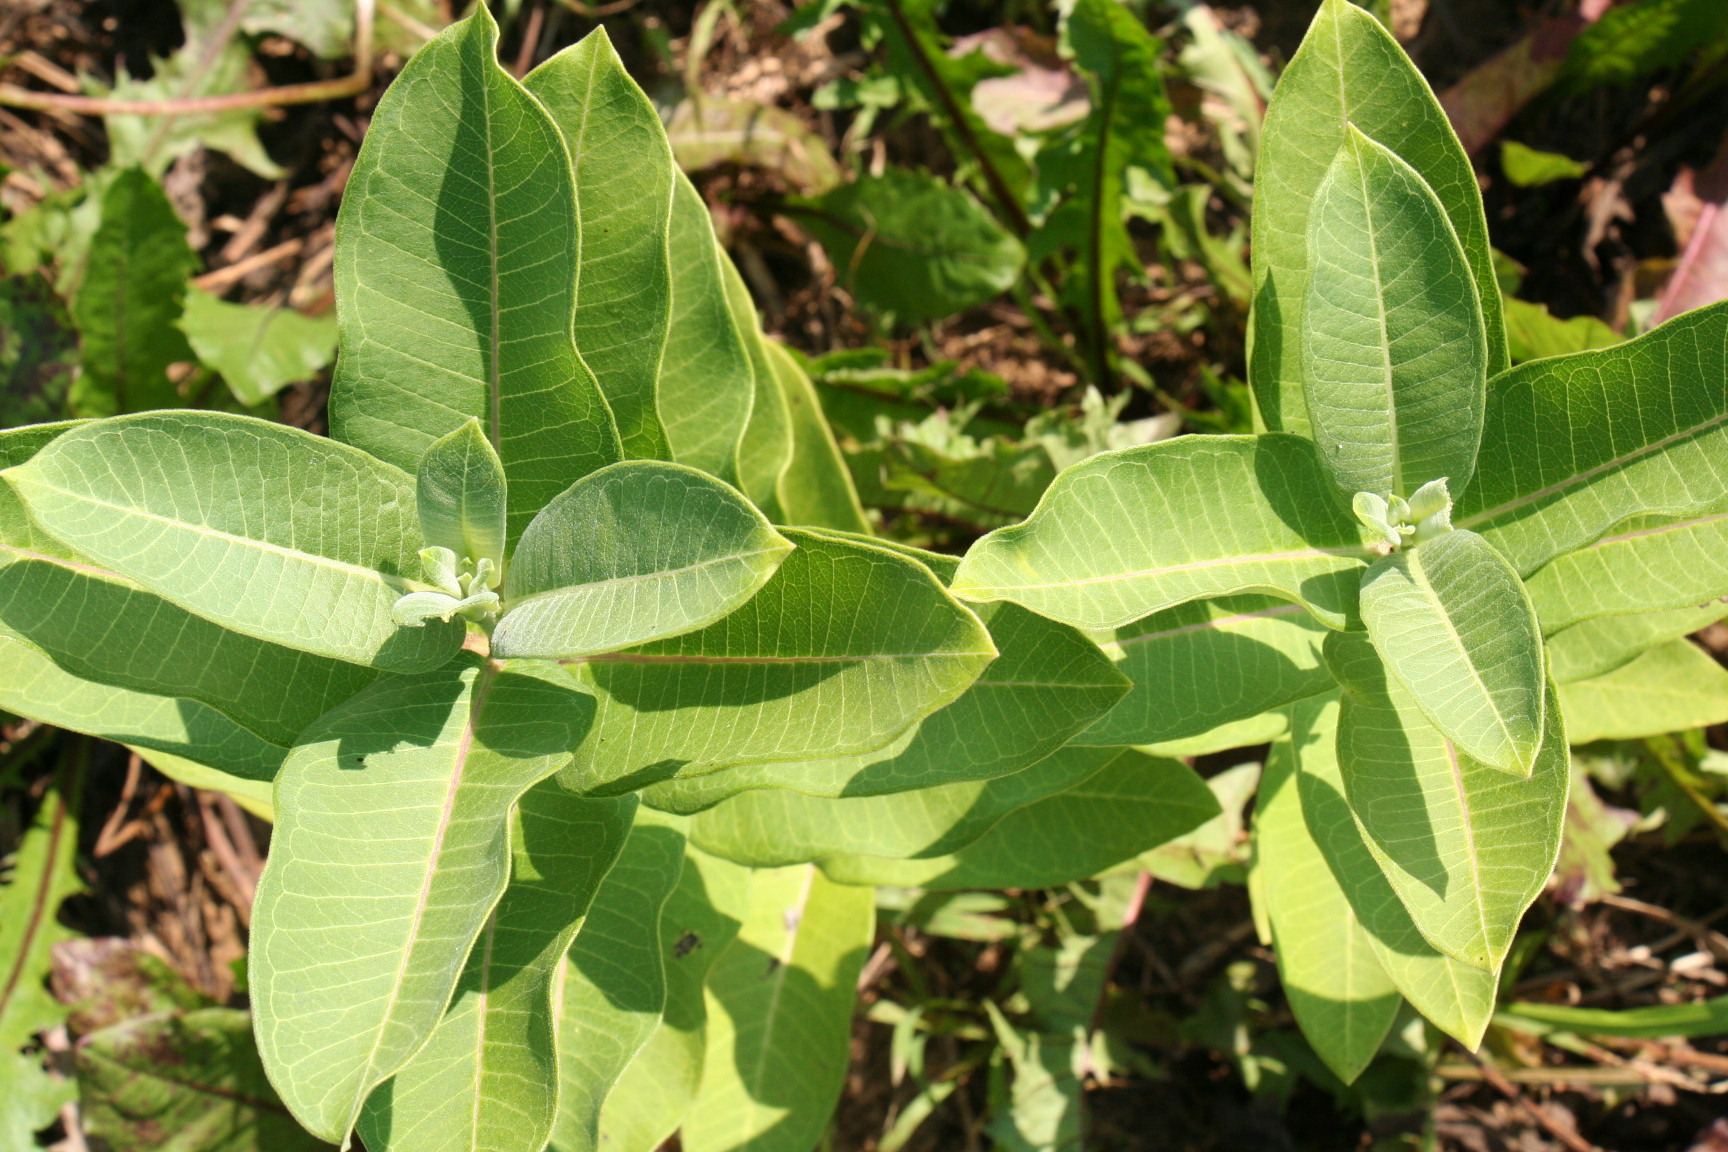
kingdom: Plantae
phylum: Tracheophyta
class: Magnoliopsida
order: Gentianales
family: Apocynaceae
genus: Asclepias
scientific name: Asclepias syriaca
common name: Common milkweed
